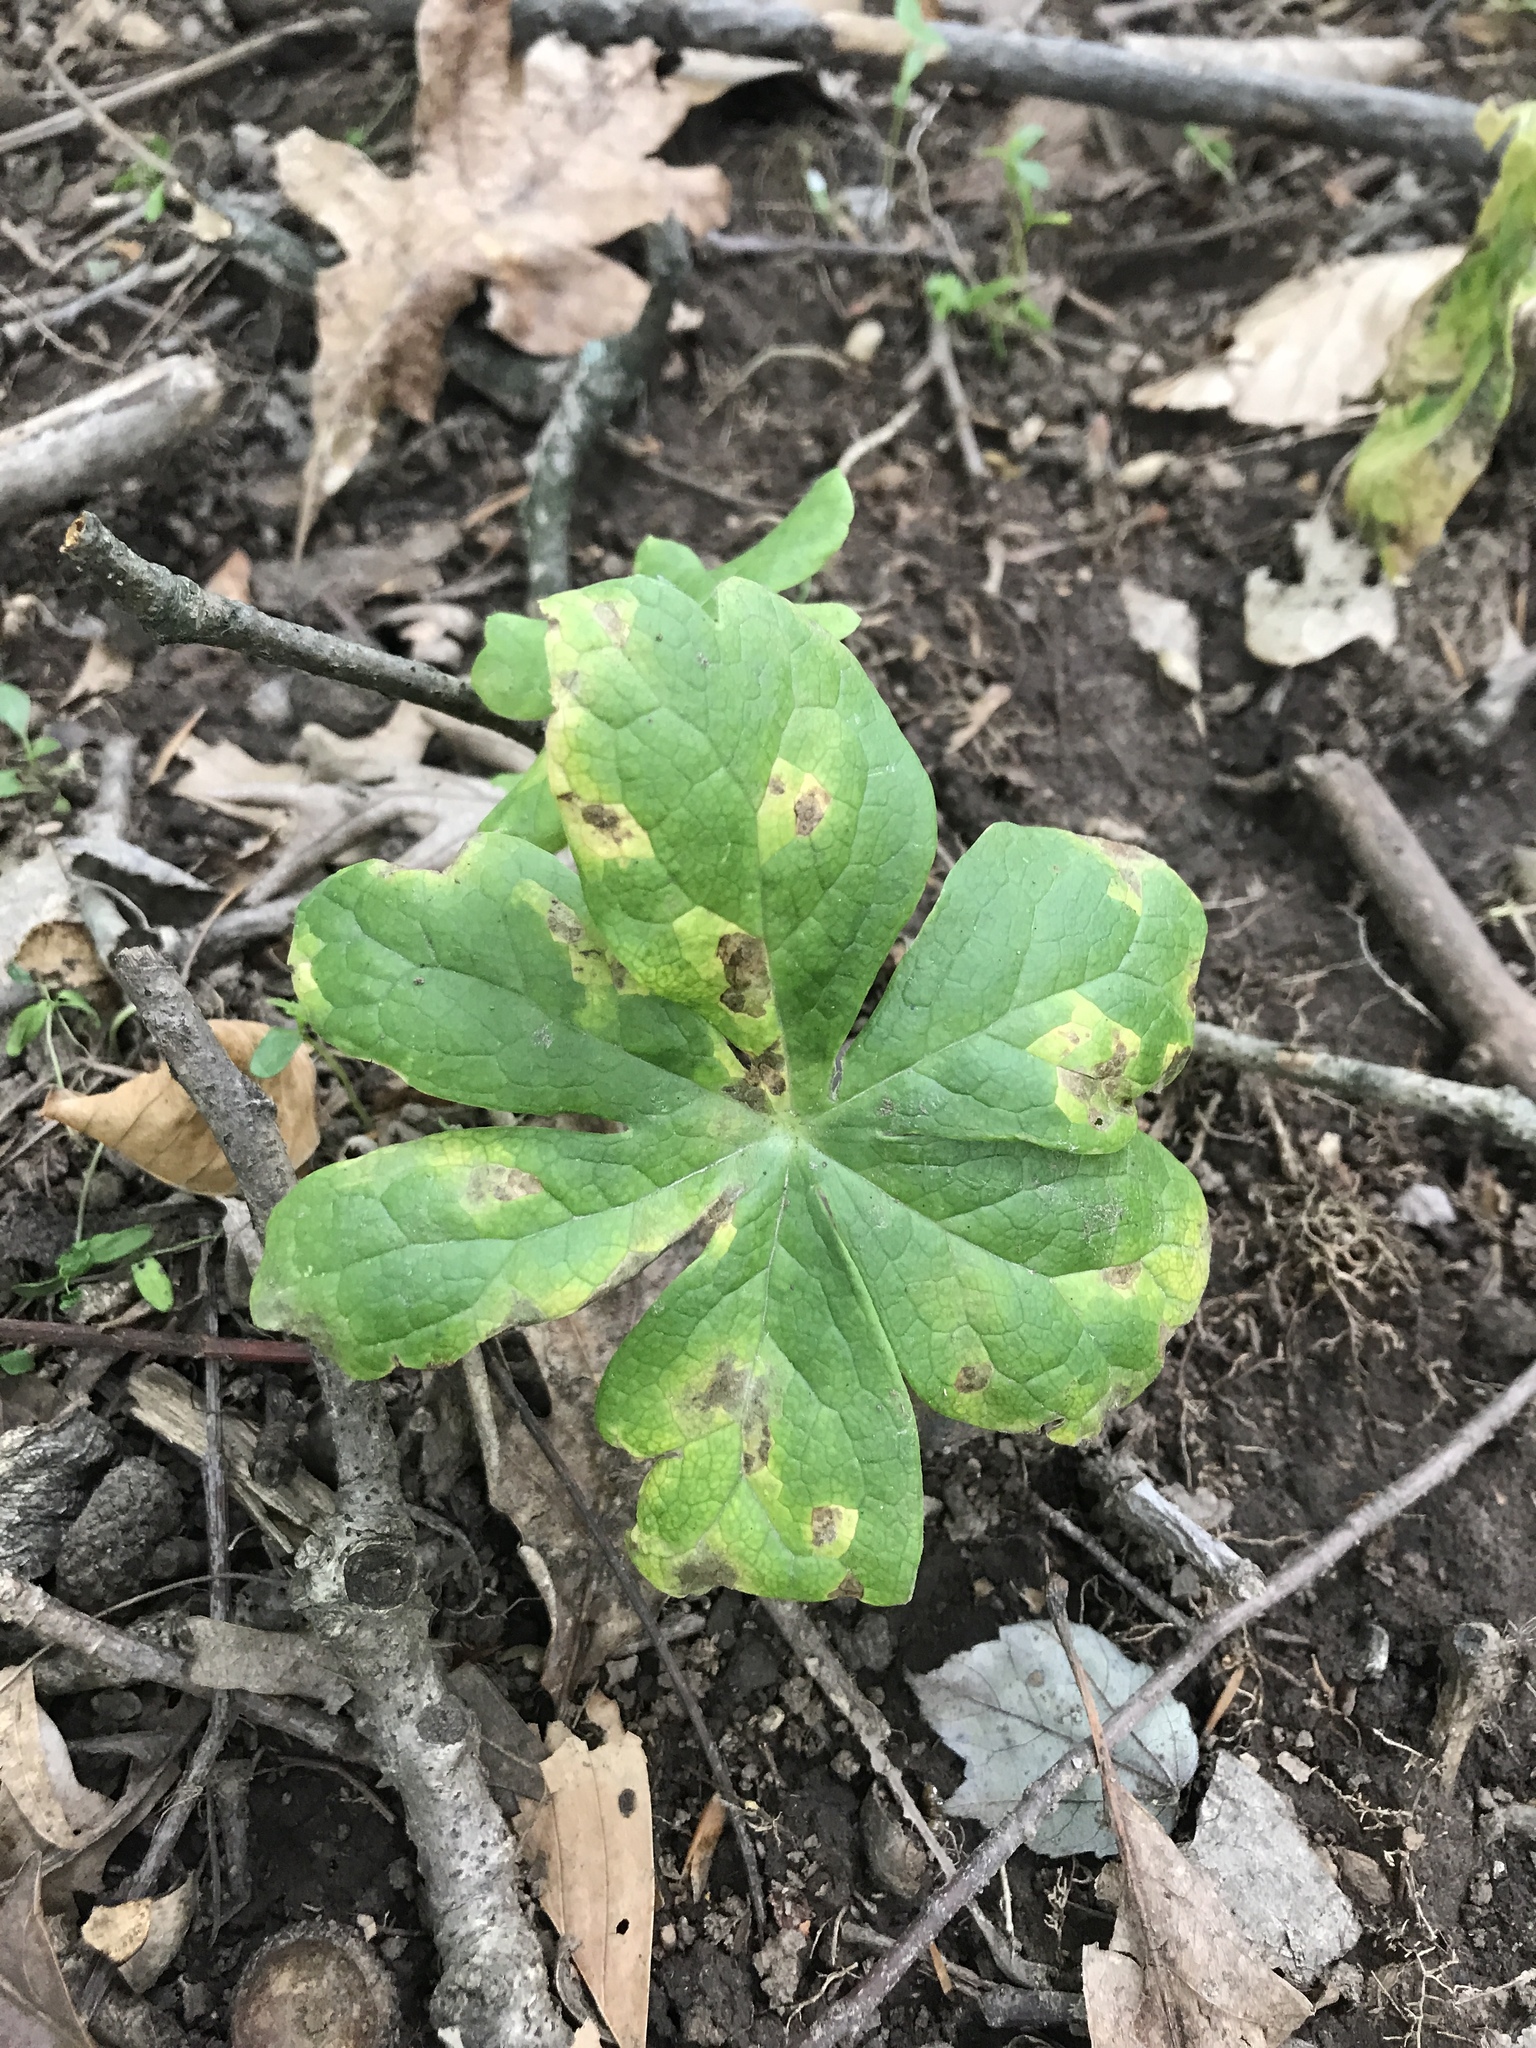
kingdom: Plantae
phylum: Tracheophyta
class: Magnoliopsida
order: Ranunculales
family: Berberidaceae
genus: Podophyllum
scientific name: Podophyllum peltatum
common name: Wild mandrake
